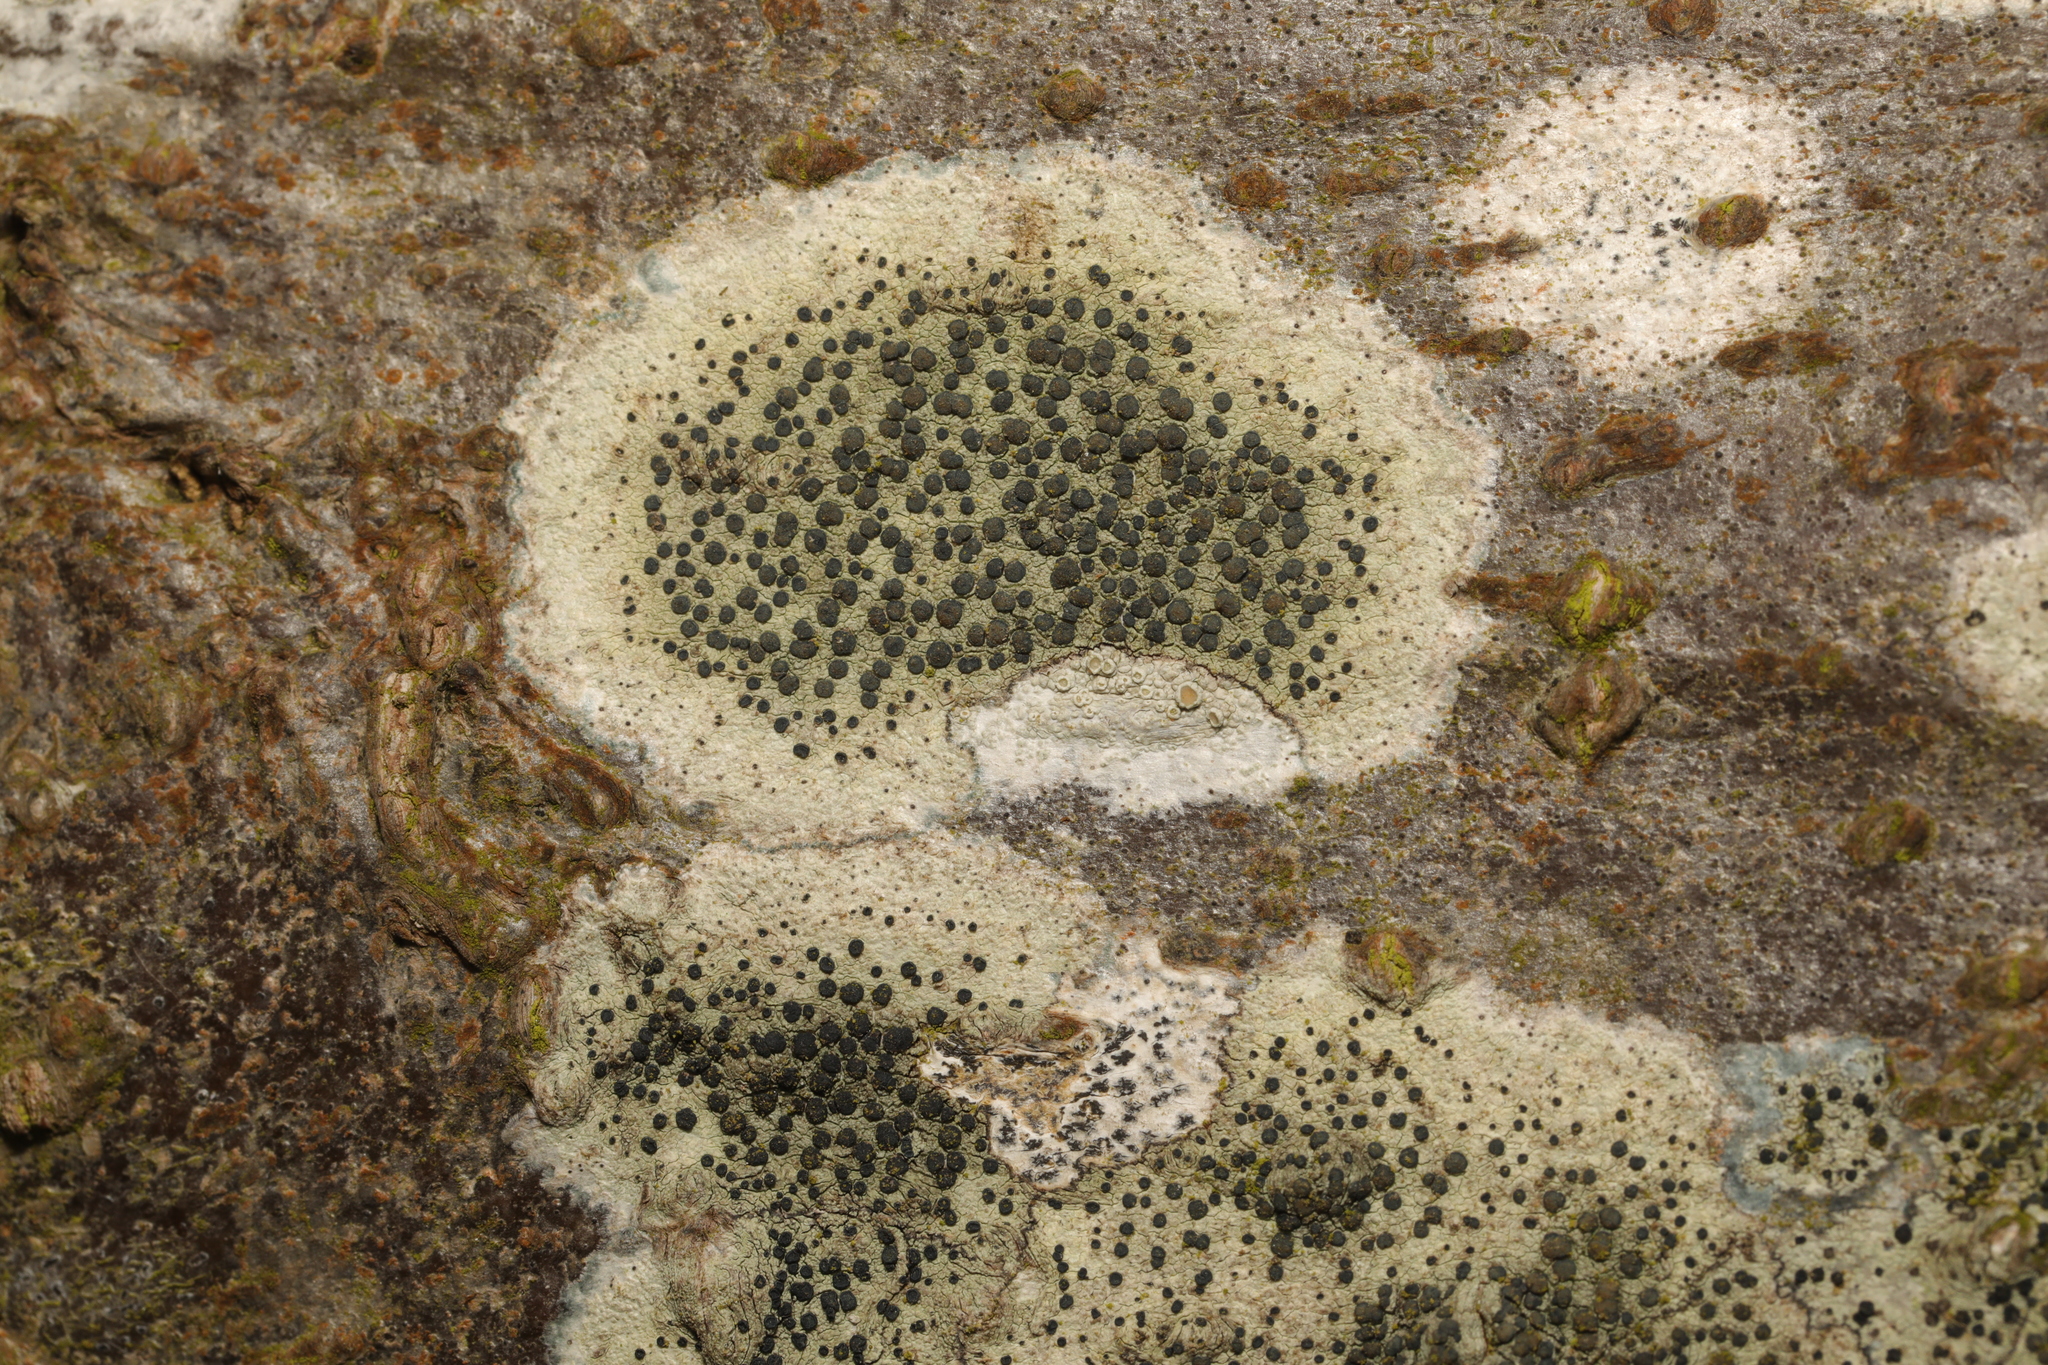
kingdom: Fungi
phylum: Ascomycota
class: Lecanoromycetes
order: Lecanorales
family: Lecanoraceae
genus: Lecidella
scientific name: Lecidella elaeochroma
